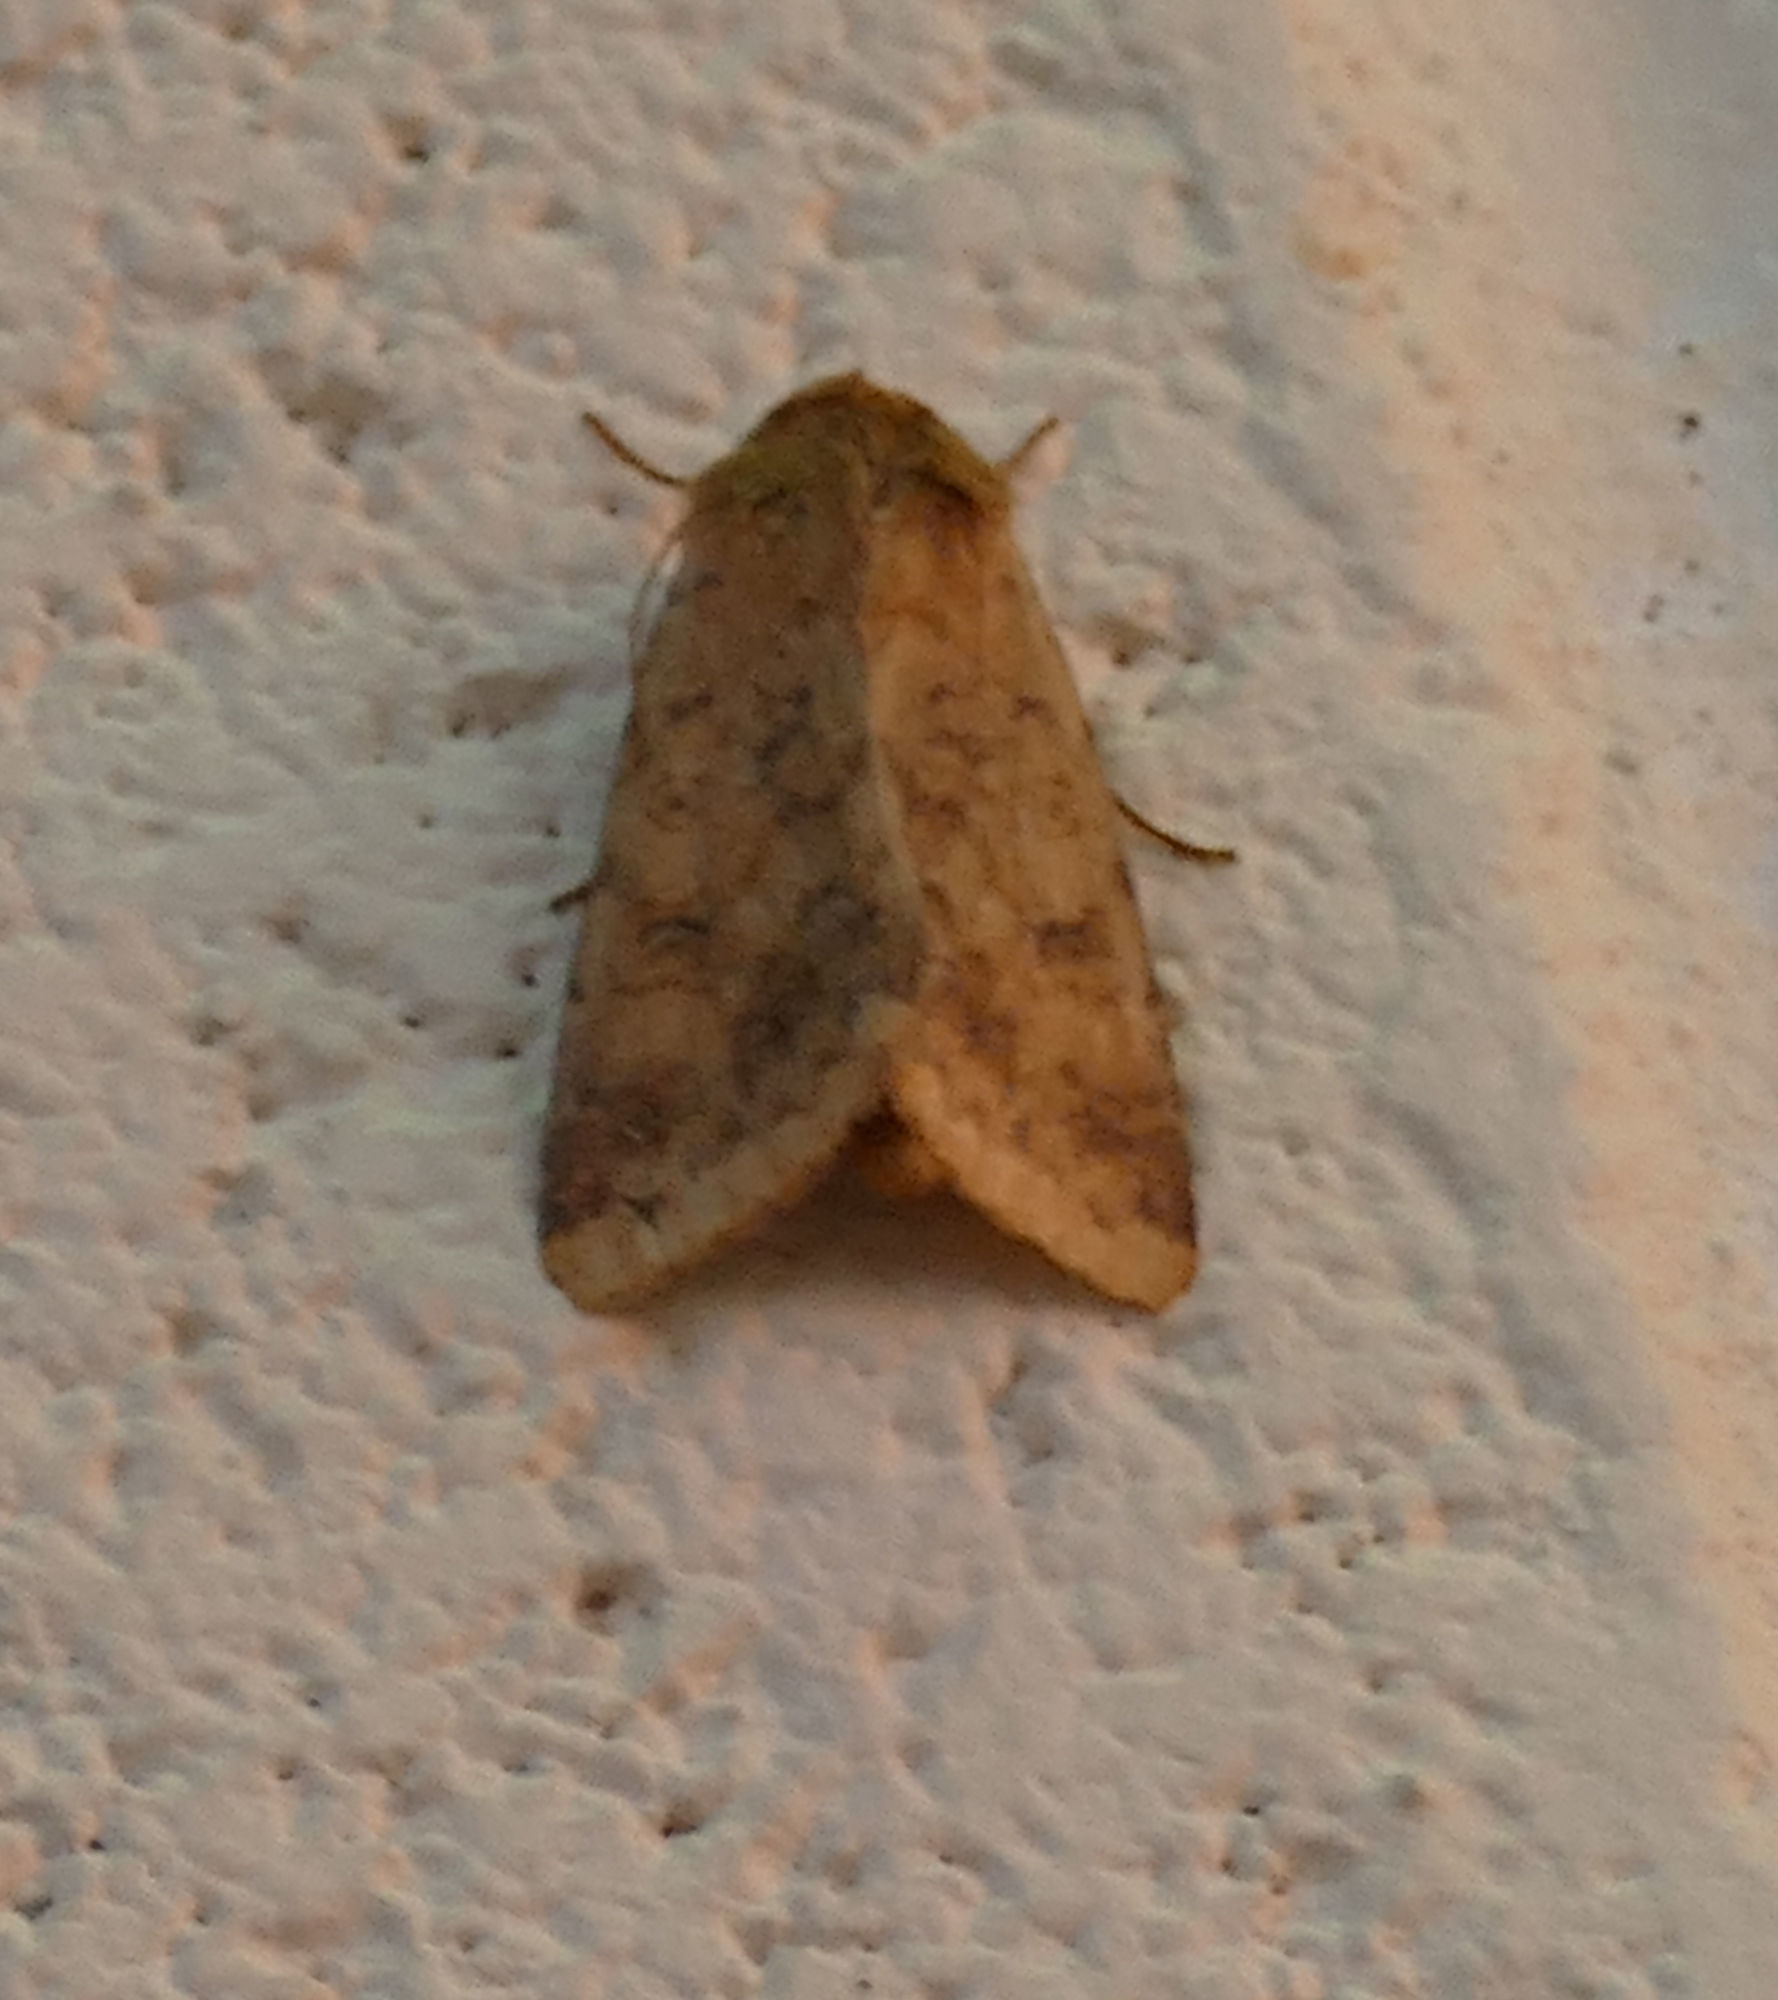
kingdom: Animalia
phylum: Arthropoda
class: Insecta
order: Lepidoptera
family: Noctuidae
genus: Helicoverpa
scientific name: Helicoverpa zea
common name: Bollworm
